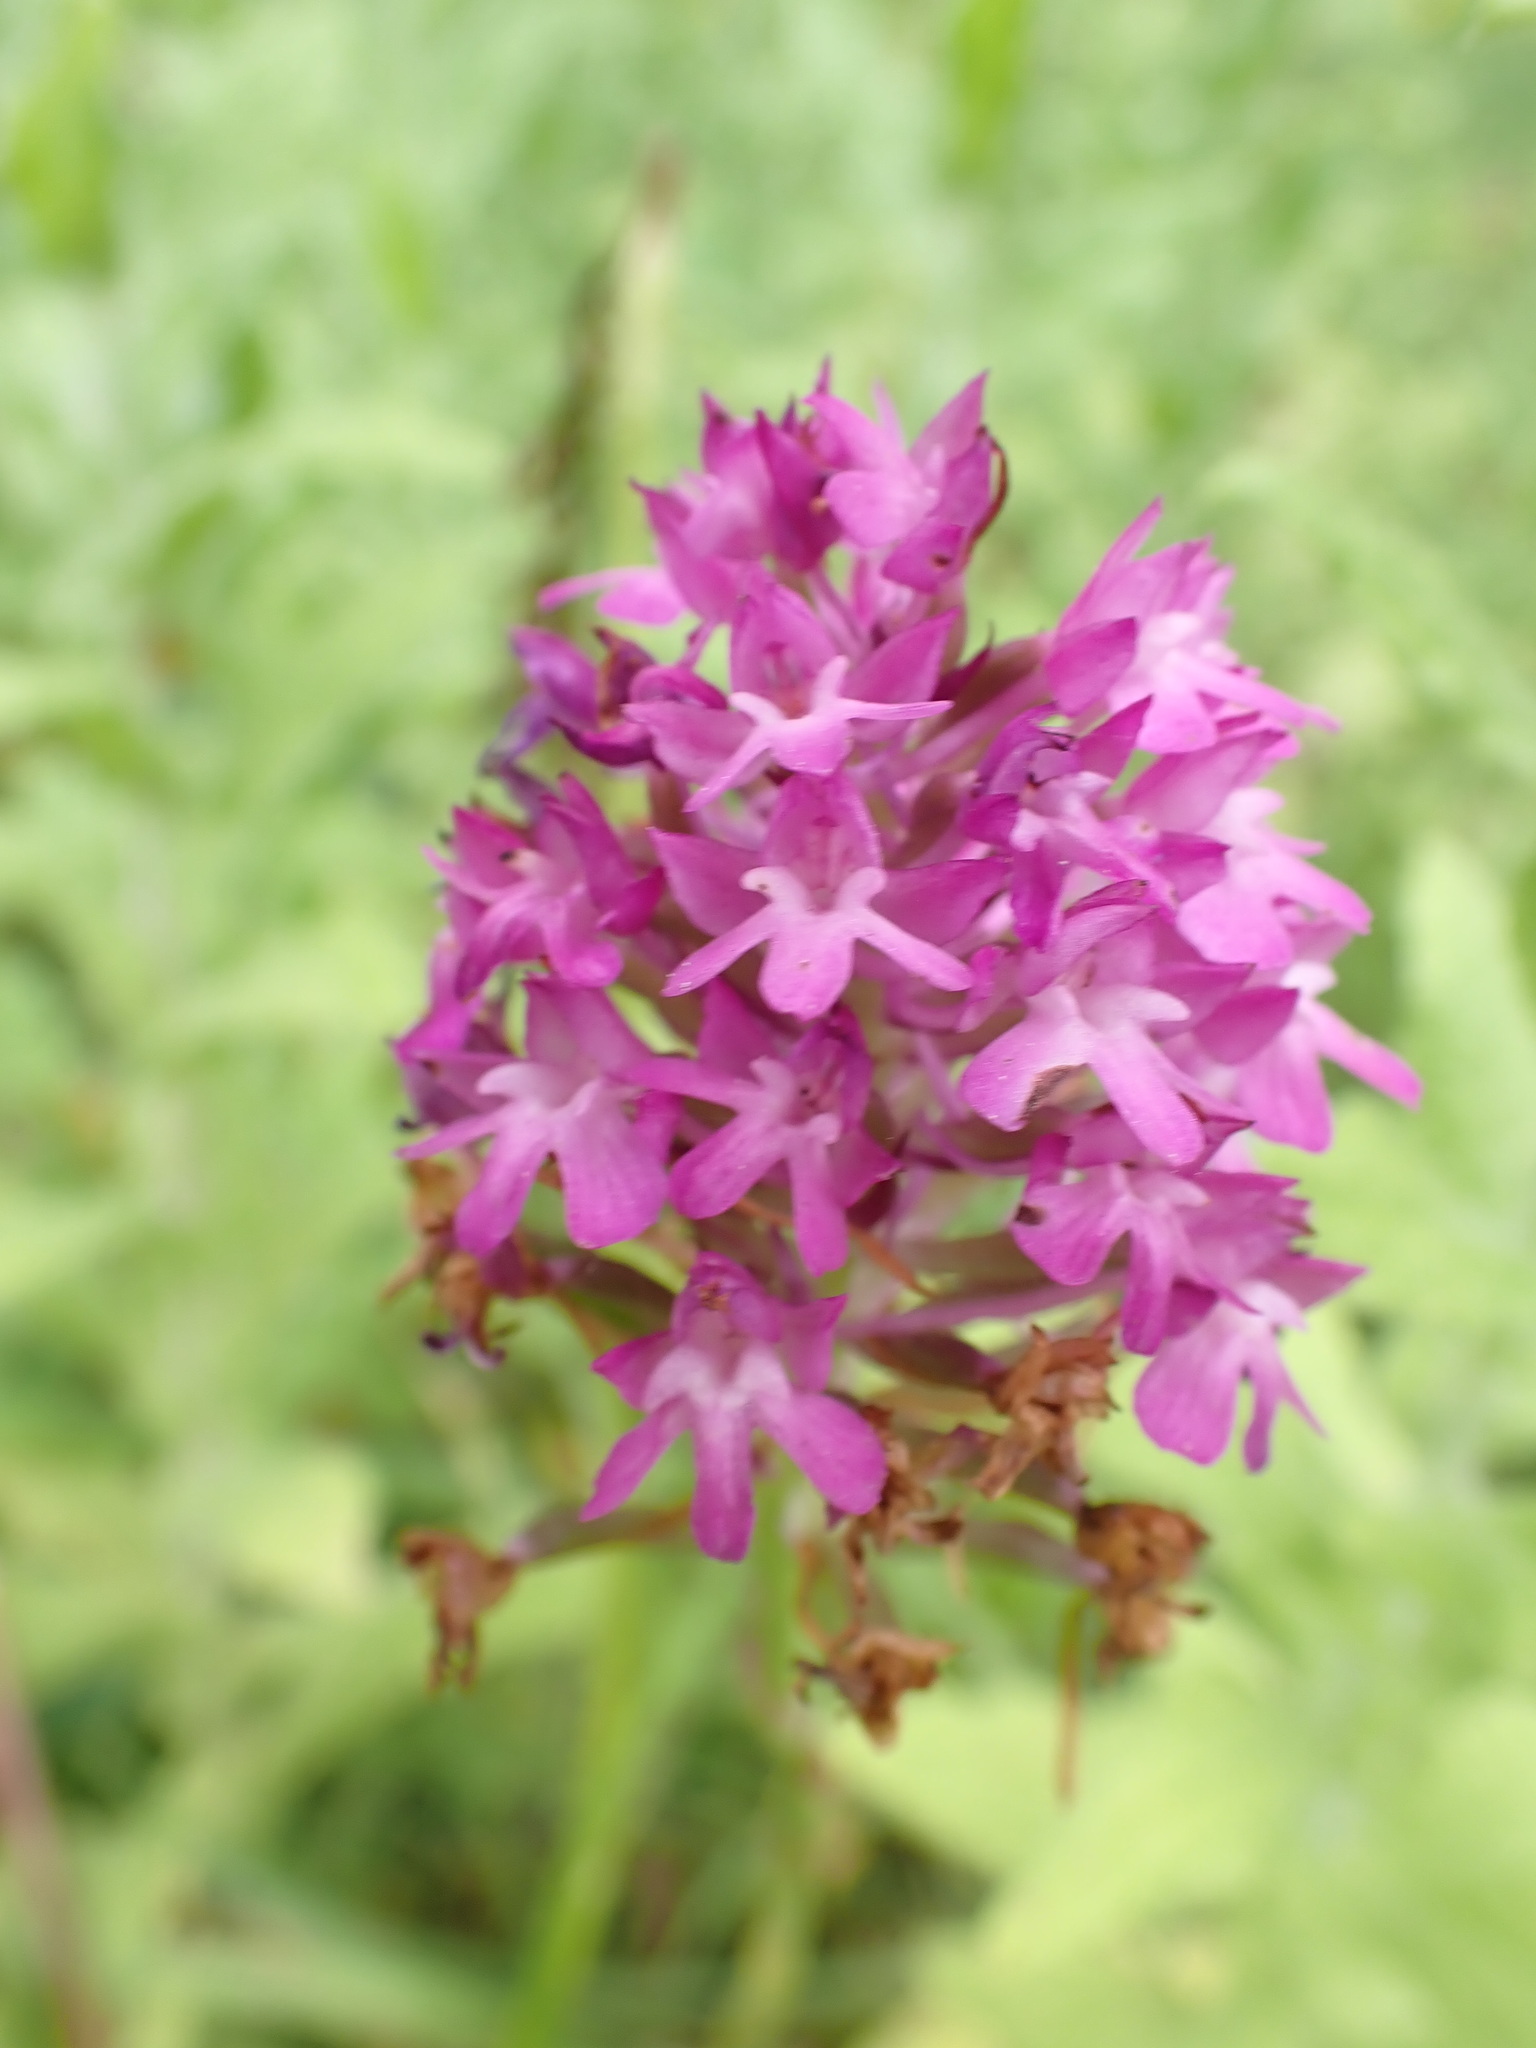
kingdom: Plantae
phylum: Tracheophyta
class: Liliopsida
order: Asparagales
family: Orchidaceae
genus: Anacamptis
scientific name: Anacamptis pyramidalis
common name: Pyramidal orchid
